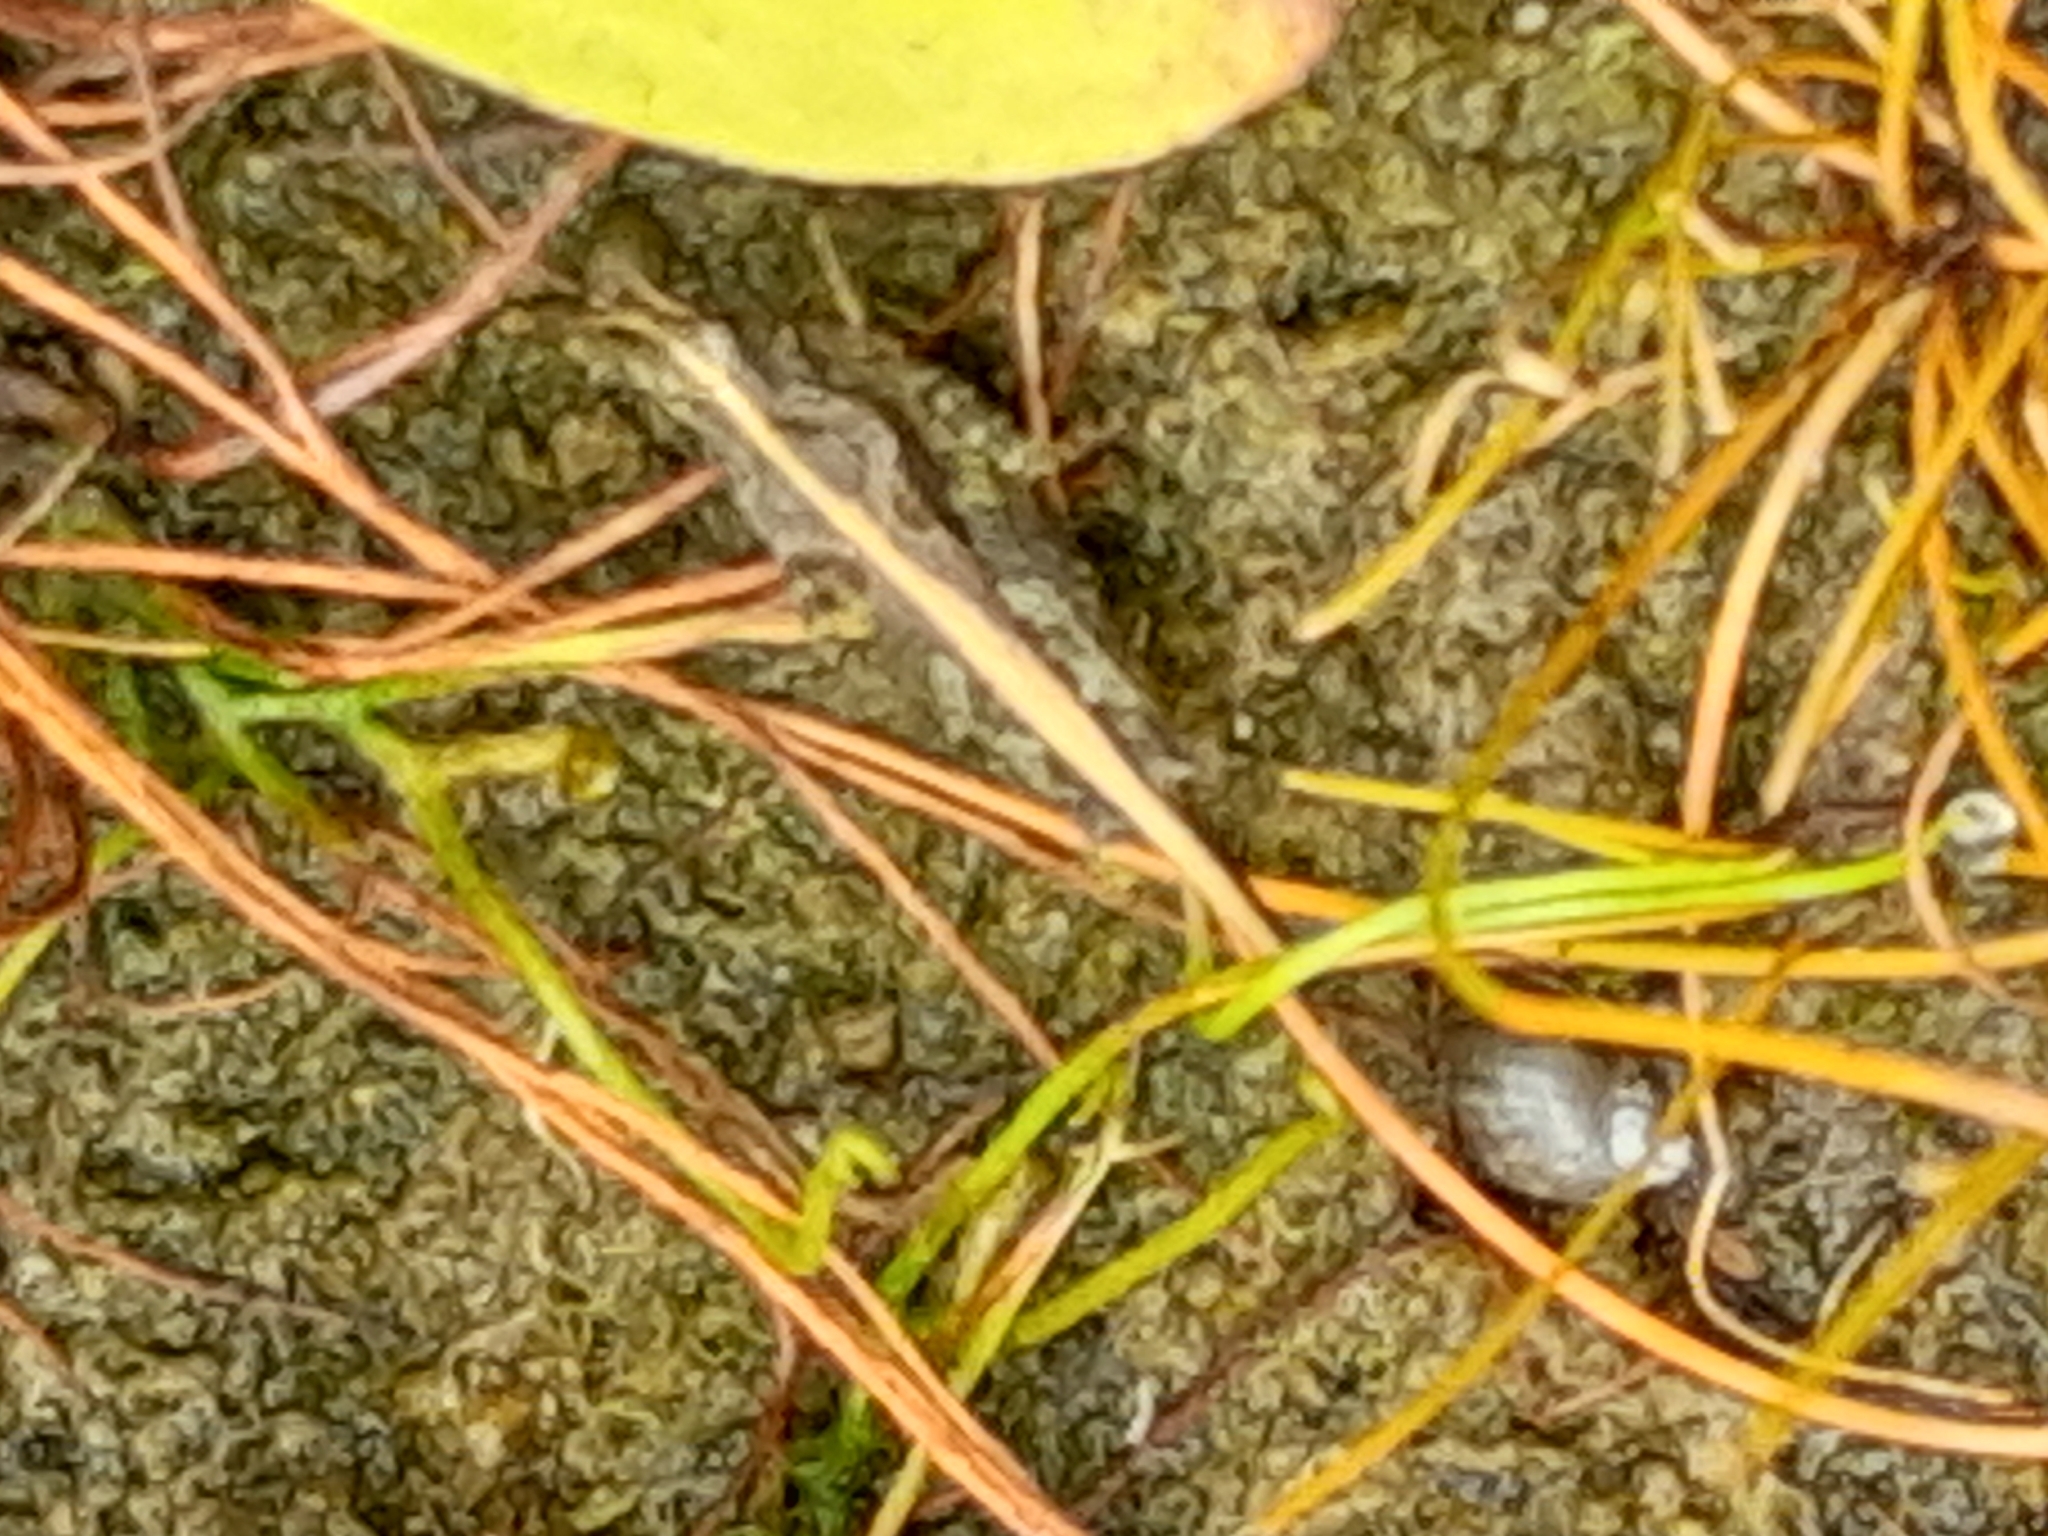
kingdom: Animalia
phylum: Arthropoda
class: Insecta
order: Orthoptera
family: Tetrigidae
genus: Tetrix
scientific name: Tetrix subulata
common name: Slender ground-hopper
